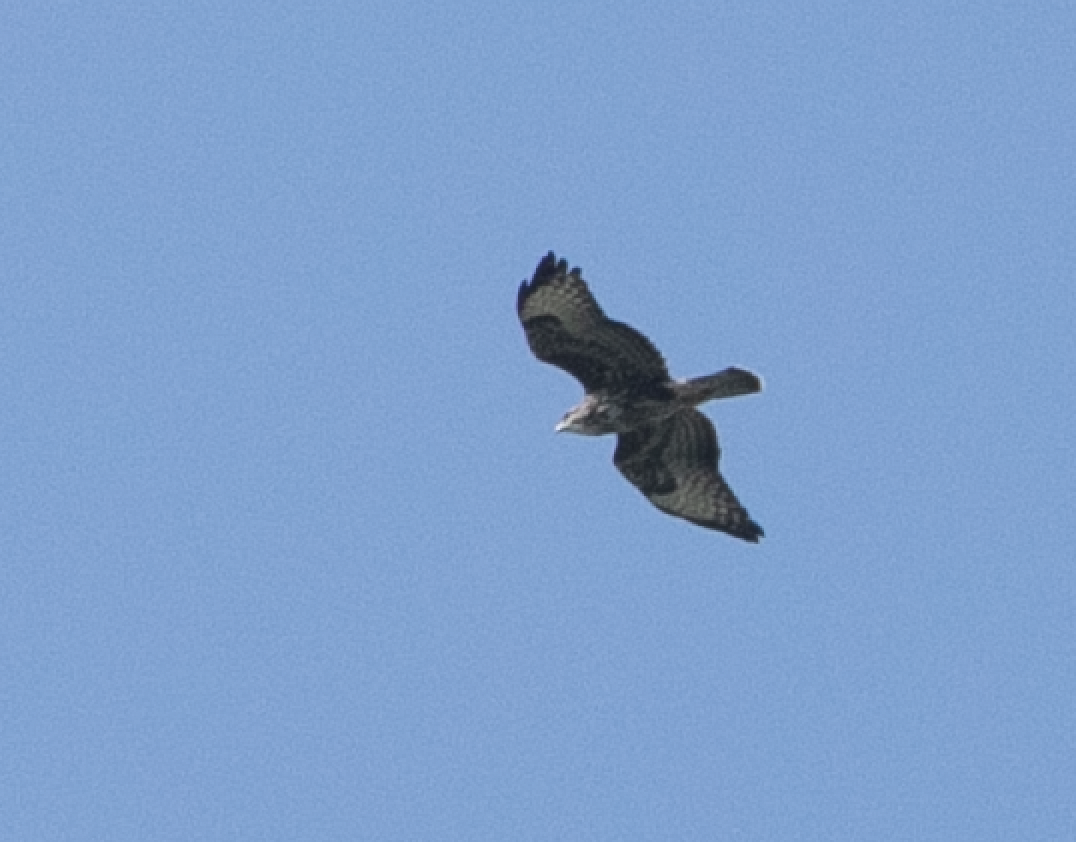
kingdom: Animalia
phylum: Chordata
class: Aves
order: Accipitriformes
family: Accipitridae
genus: Buteo
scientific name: Buteo buteo
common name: Common buzzard
